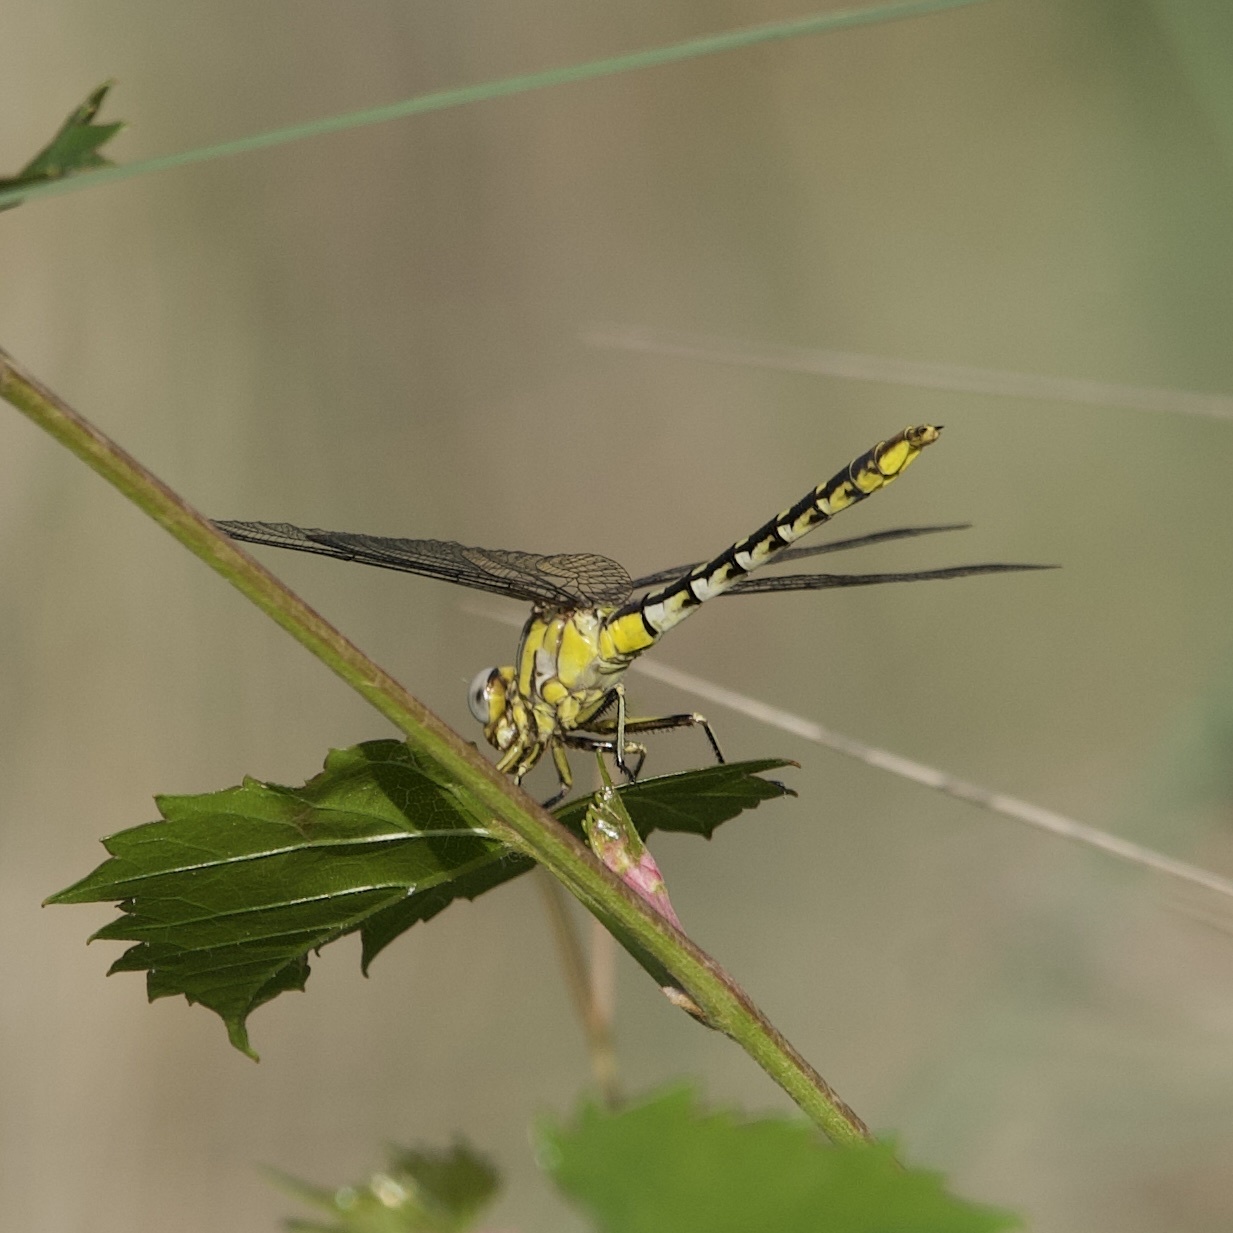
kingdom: Animalia
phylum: Arthropoda
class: Insecta
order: Odonata
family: Gomphidae
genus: Phanogomphus
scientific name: Phanogomphus militaris
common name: Sulphur-tipped clubtail
